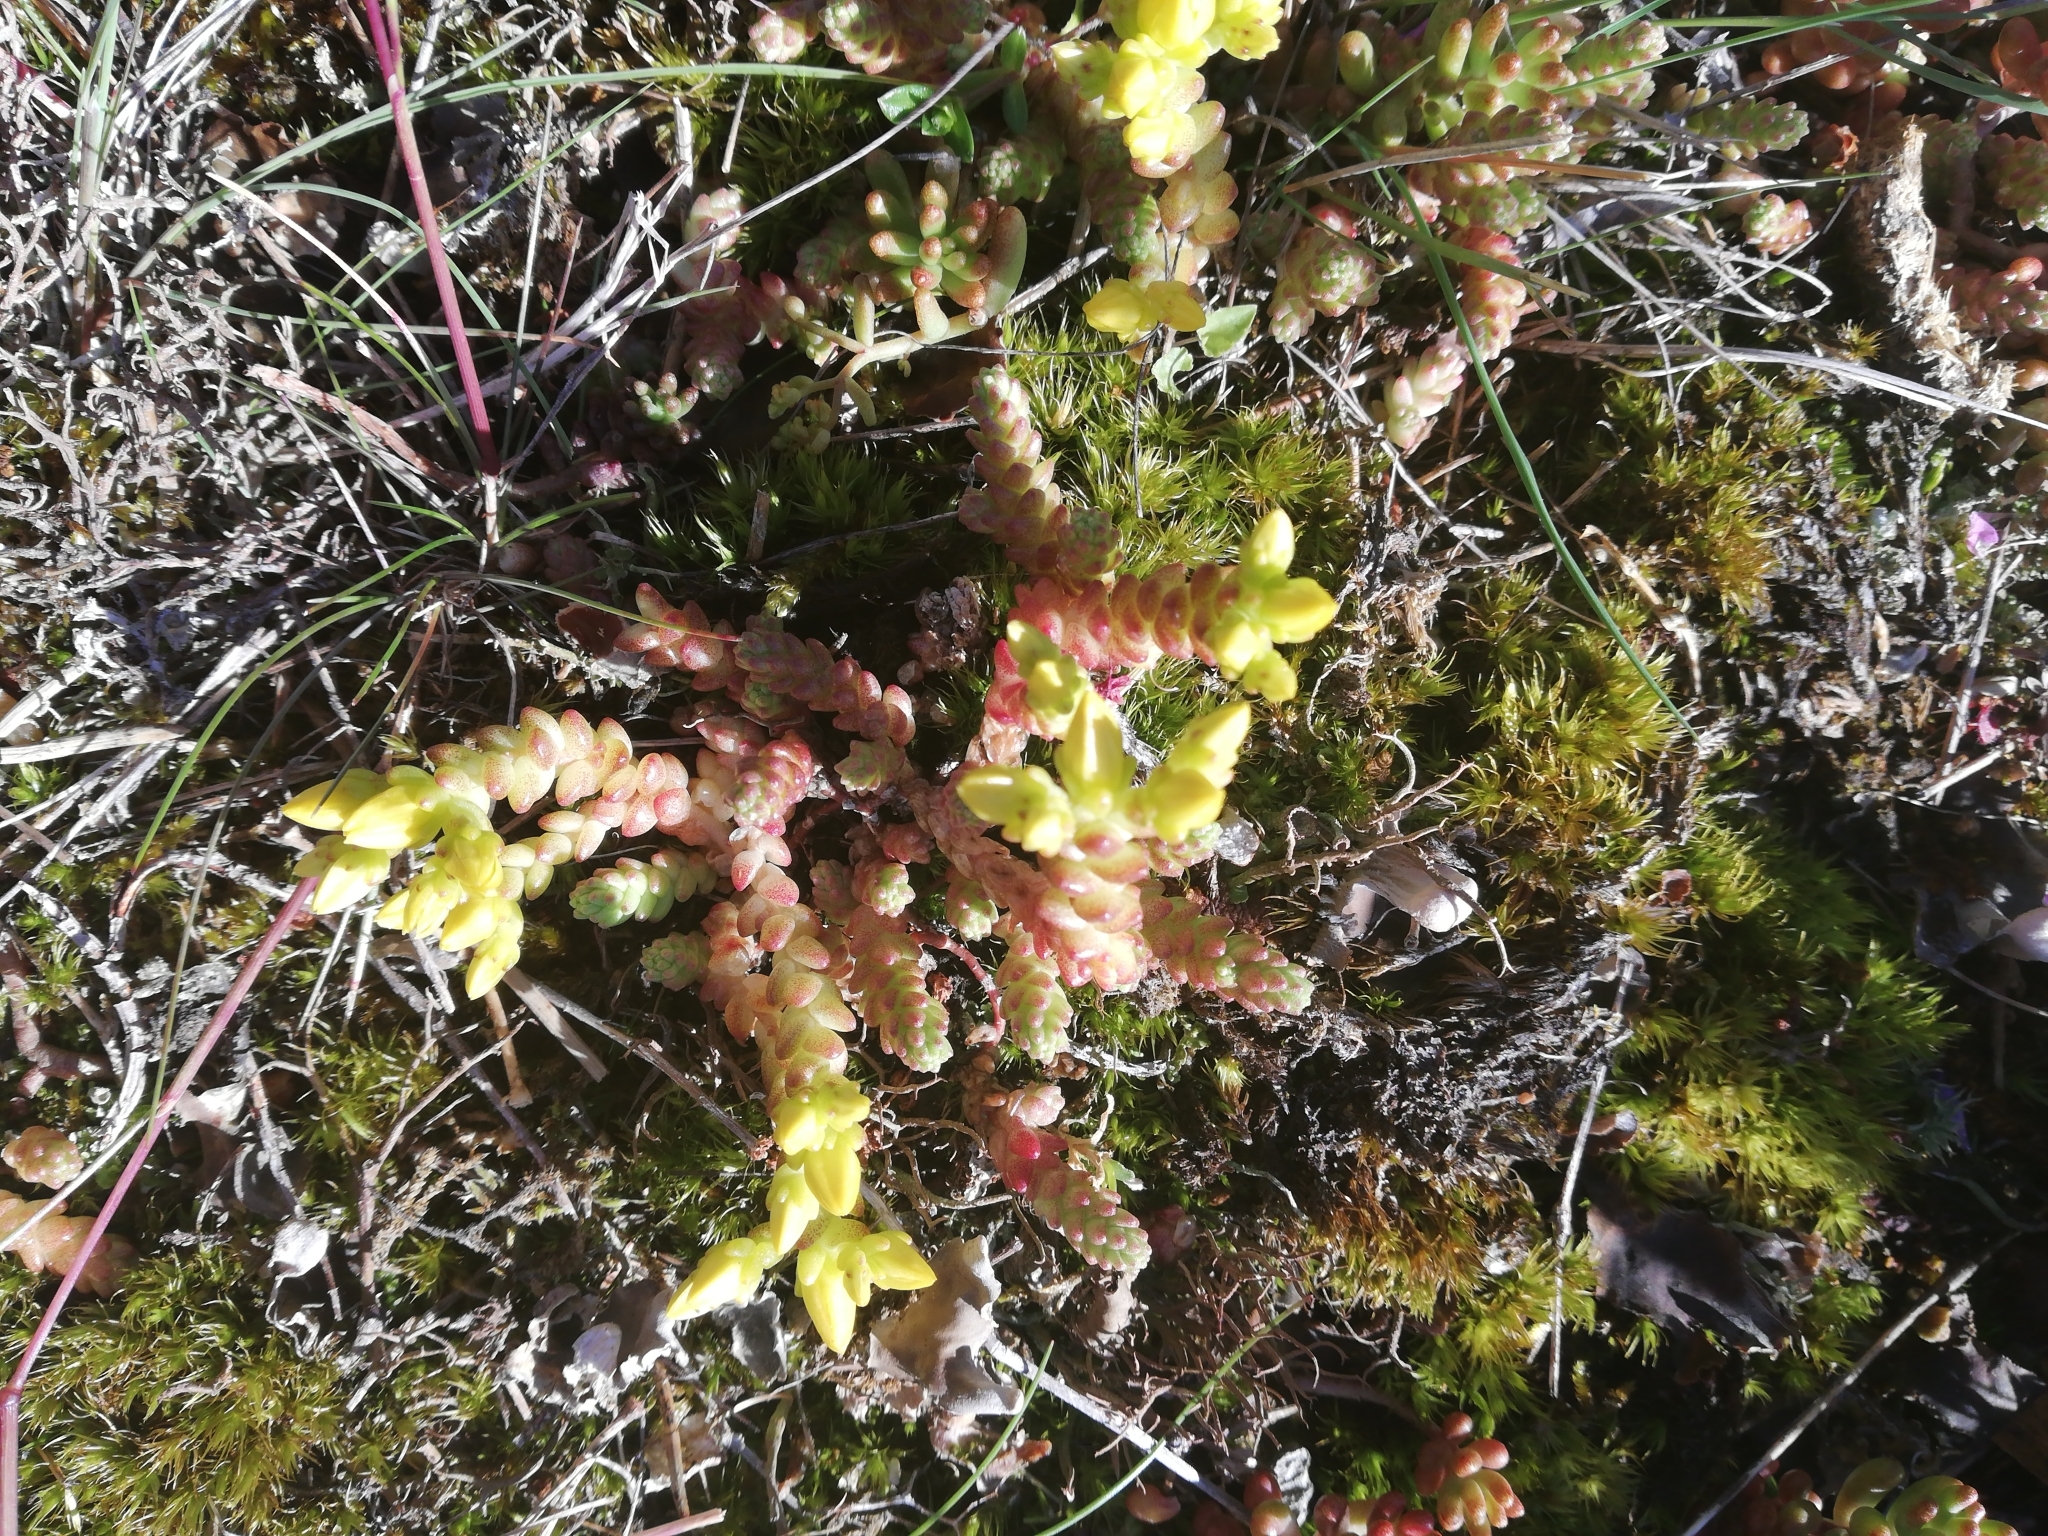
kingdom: Plantae
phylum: Tracheophyta
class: Magnoliopsida
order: Saxifragales
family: Crassulaceae
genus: Sedum
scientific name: Sedum acre
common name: Biting stonecrop
